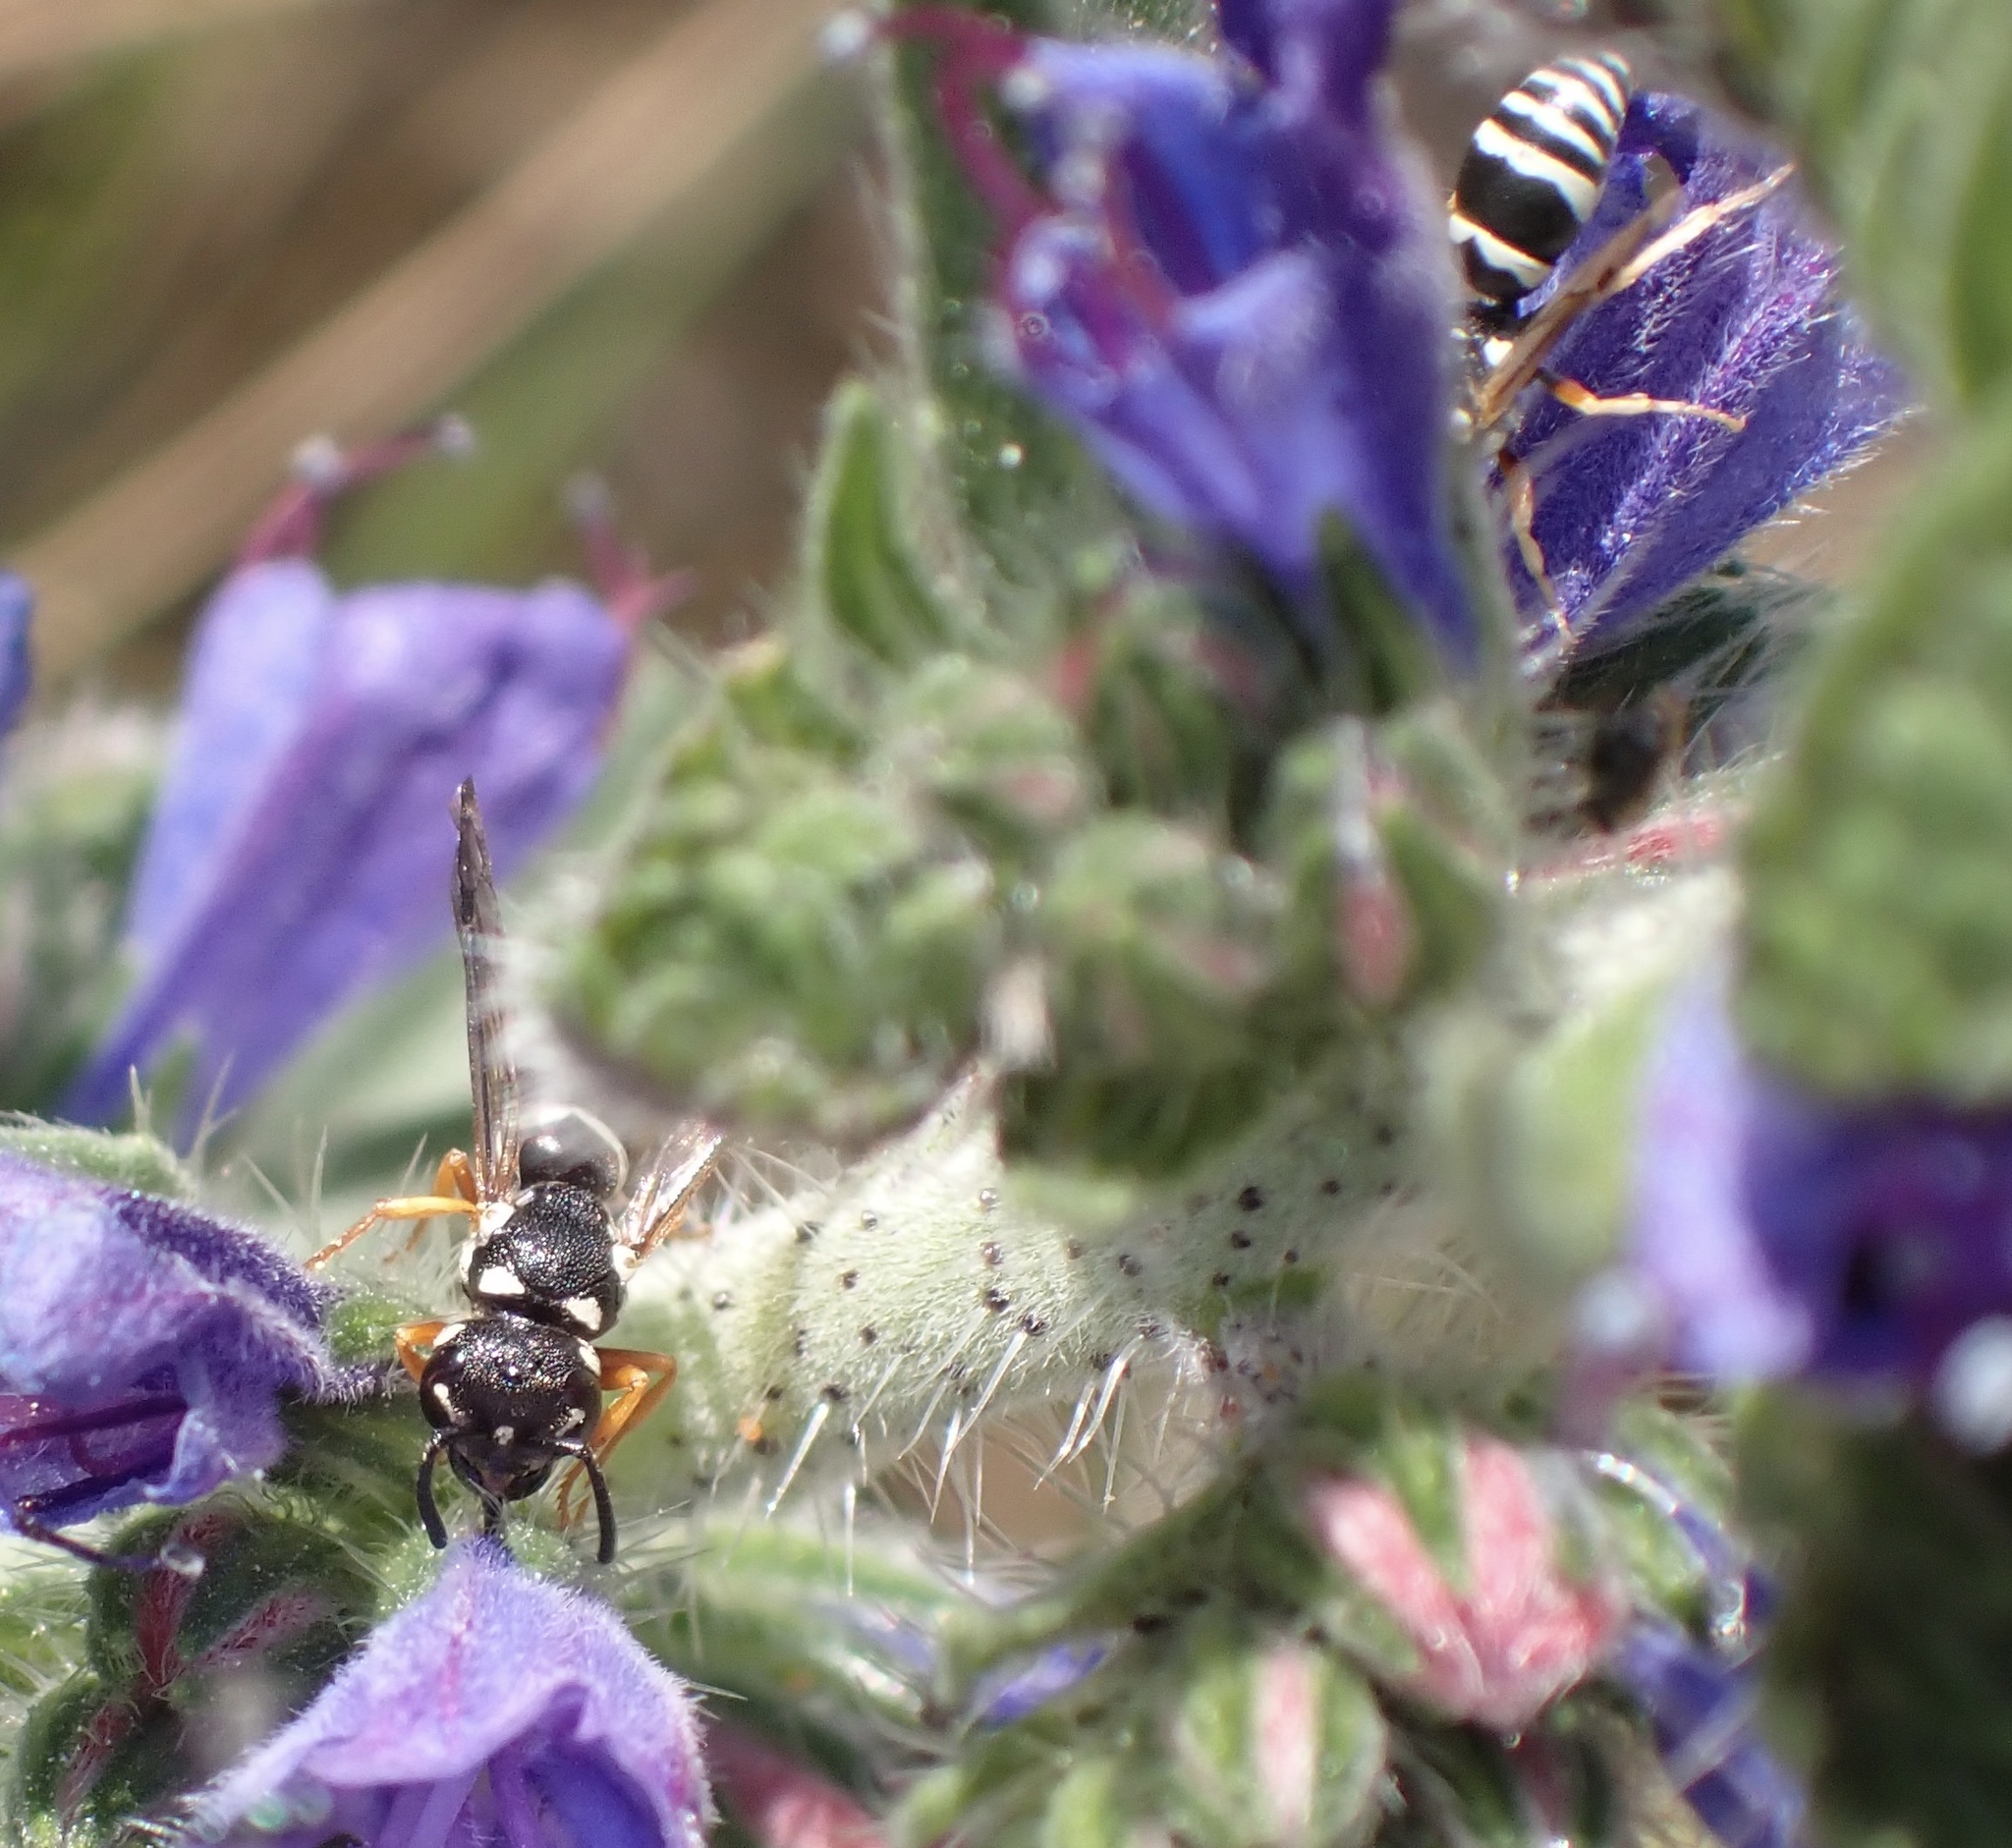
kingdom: Animalia
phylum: Arthropoda
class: Insecta
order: Hymenoptera
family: Eumenidae
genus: Pterocheilus
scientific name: Pterocheilus phaleratus
